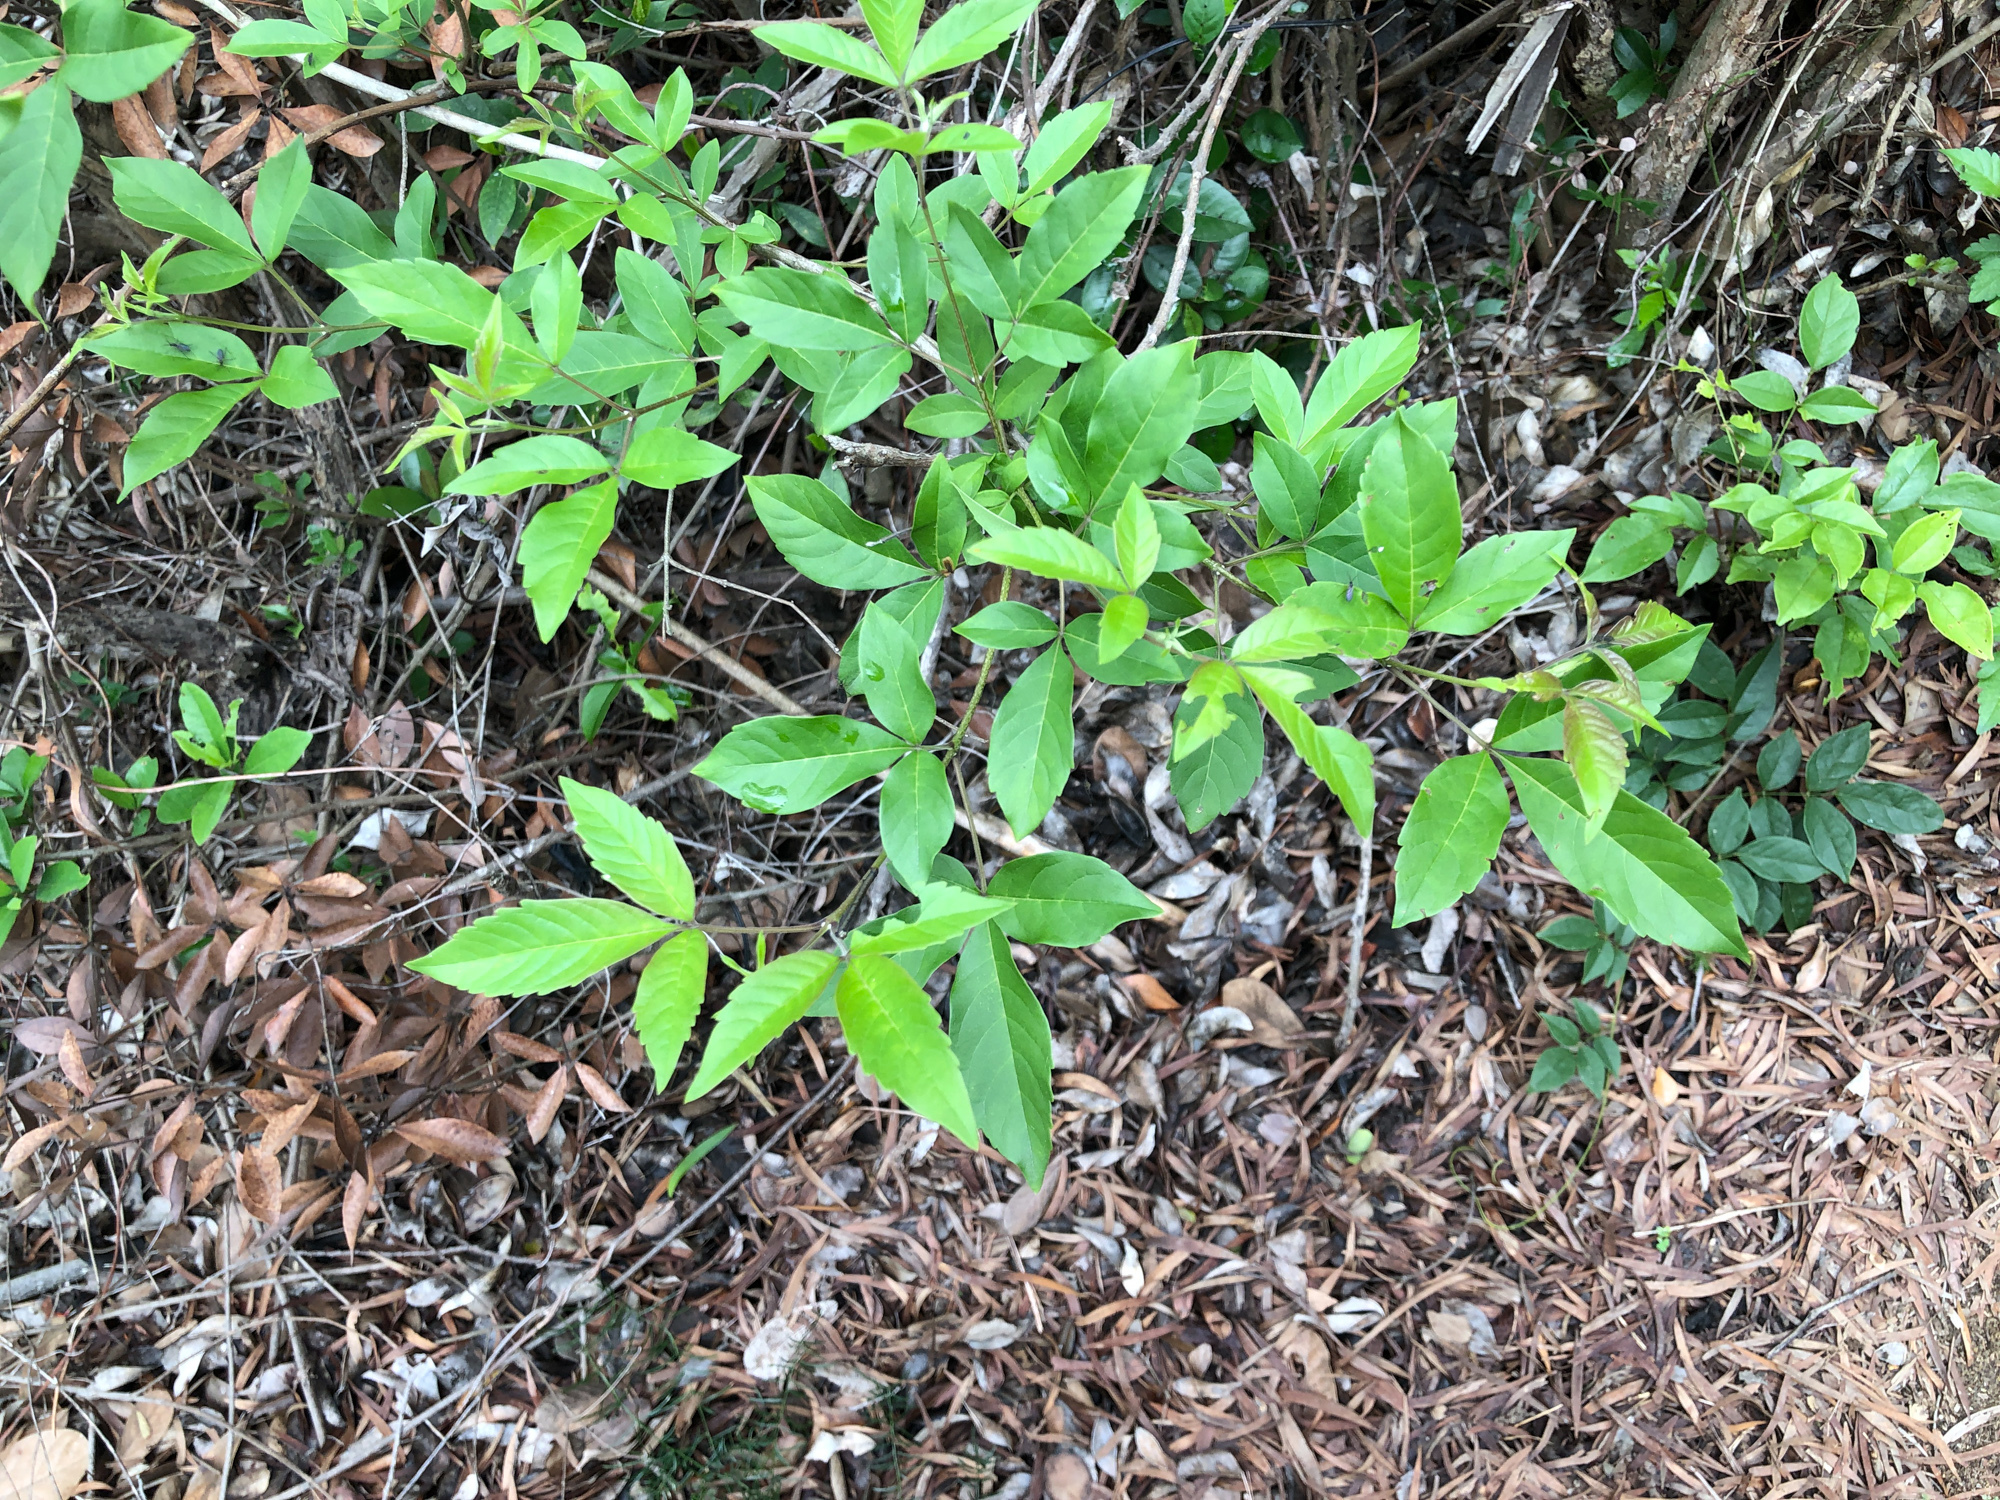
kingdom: Plantae
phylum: Tracheophyta
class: Magnoliopsida
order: Lamiales
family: Lamiaceae
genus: Vitex
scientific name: Vitex negundo
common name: Chinese chastetree
